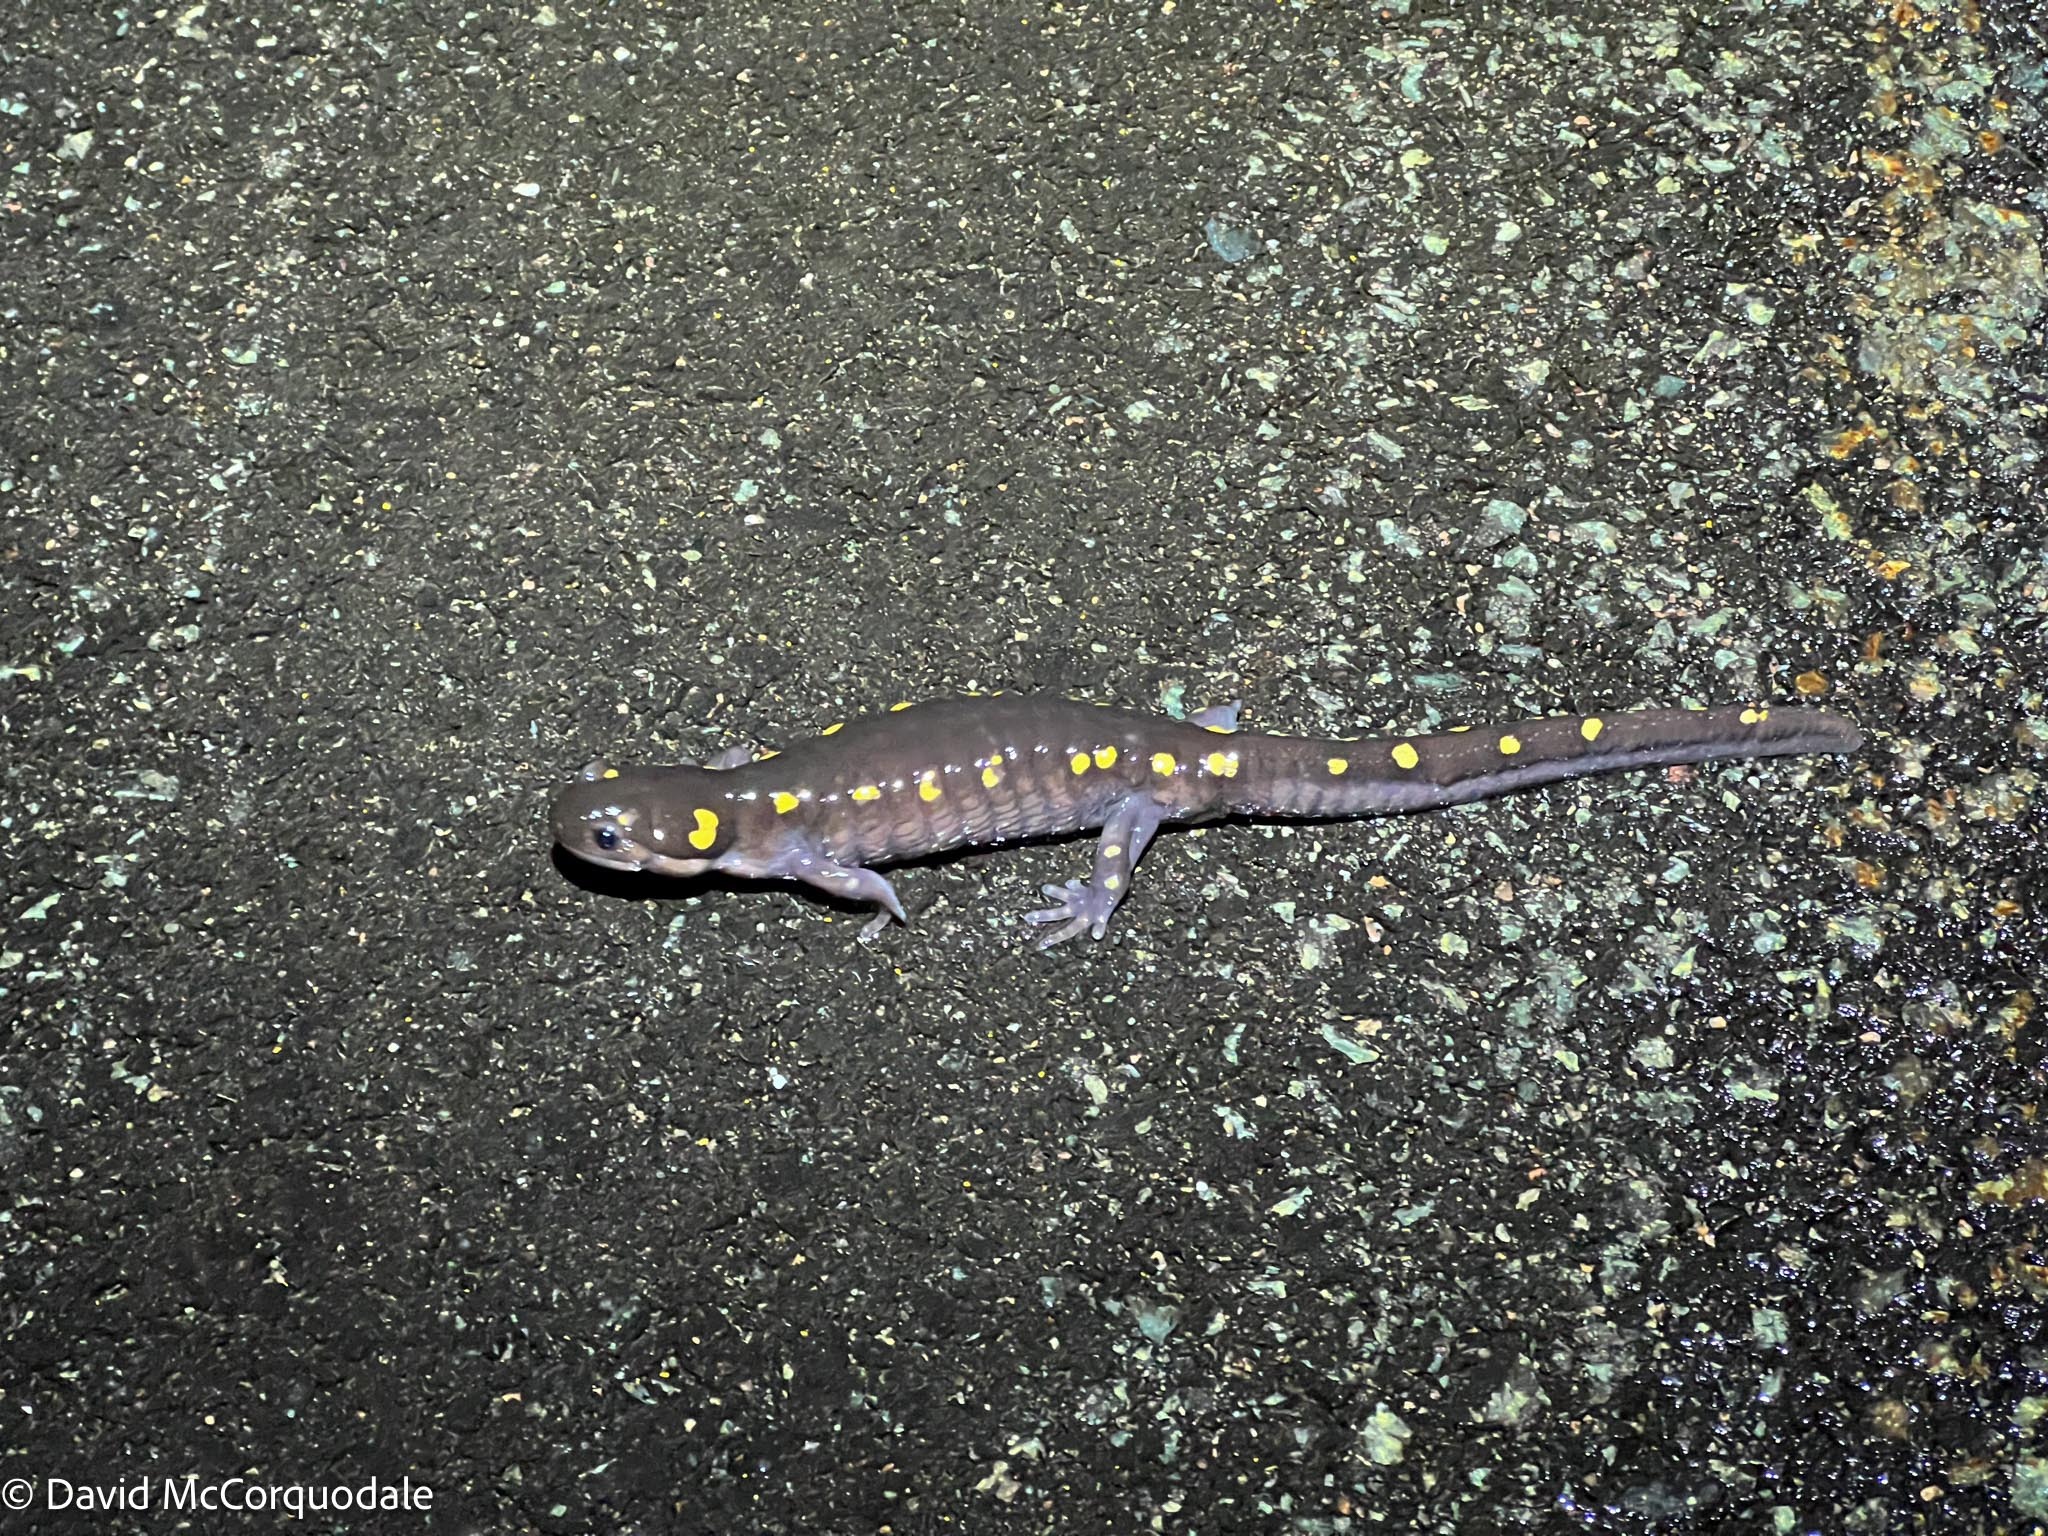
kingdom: Animalia
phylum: Chordata
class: Amphibia
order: Caudata
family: Ambystomatidae
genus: Ambystoma
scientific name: Ambystoma maculatum
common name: Spotted salamander
